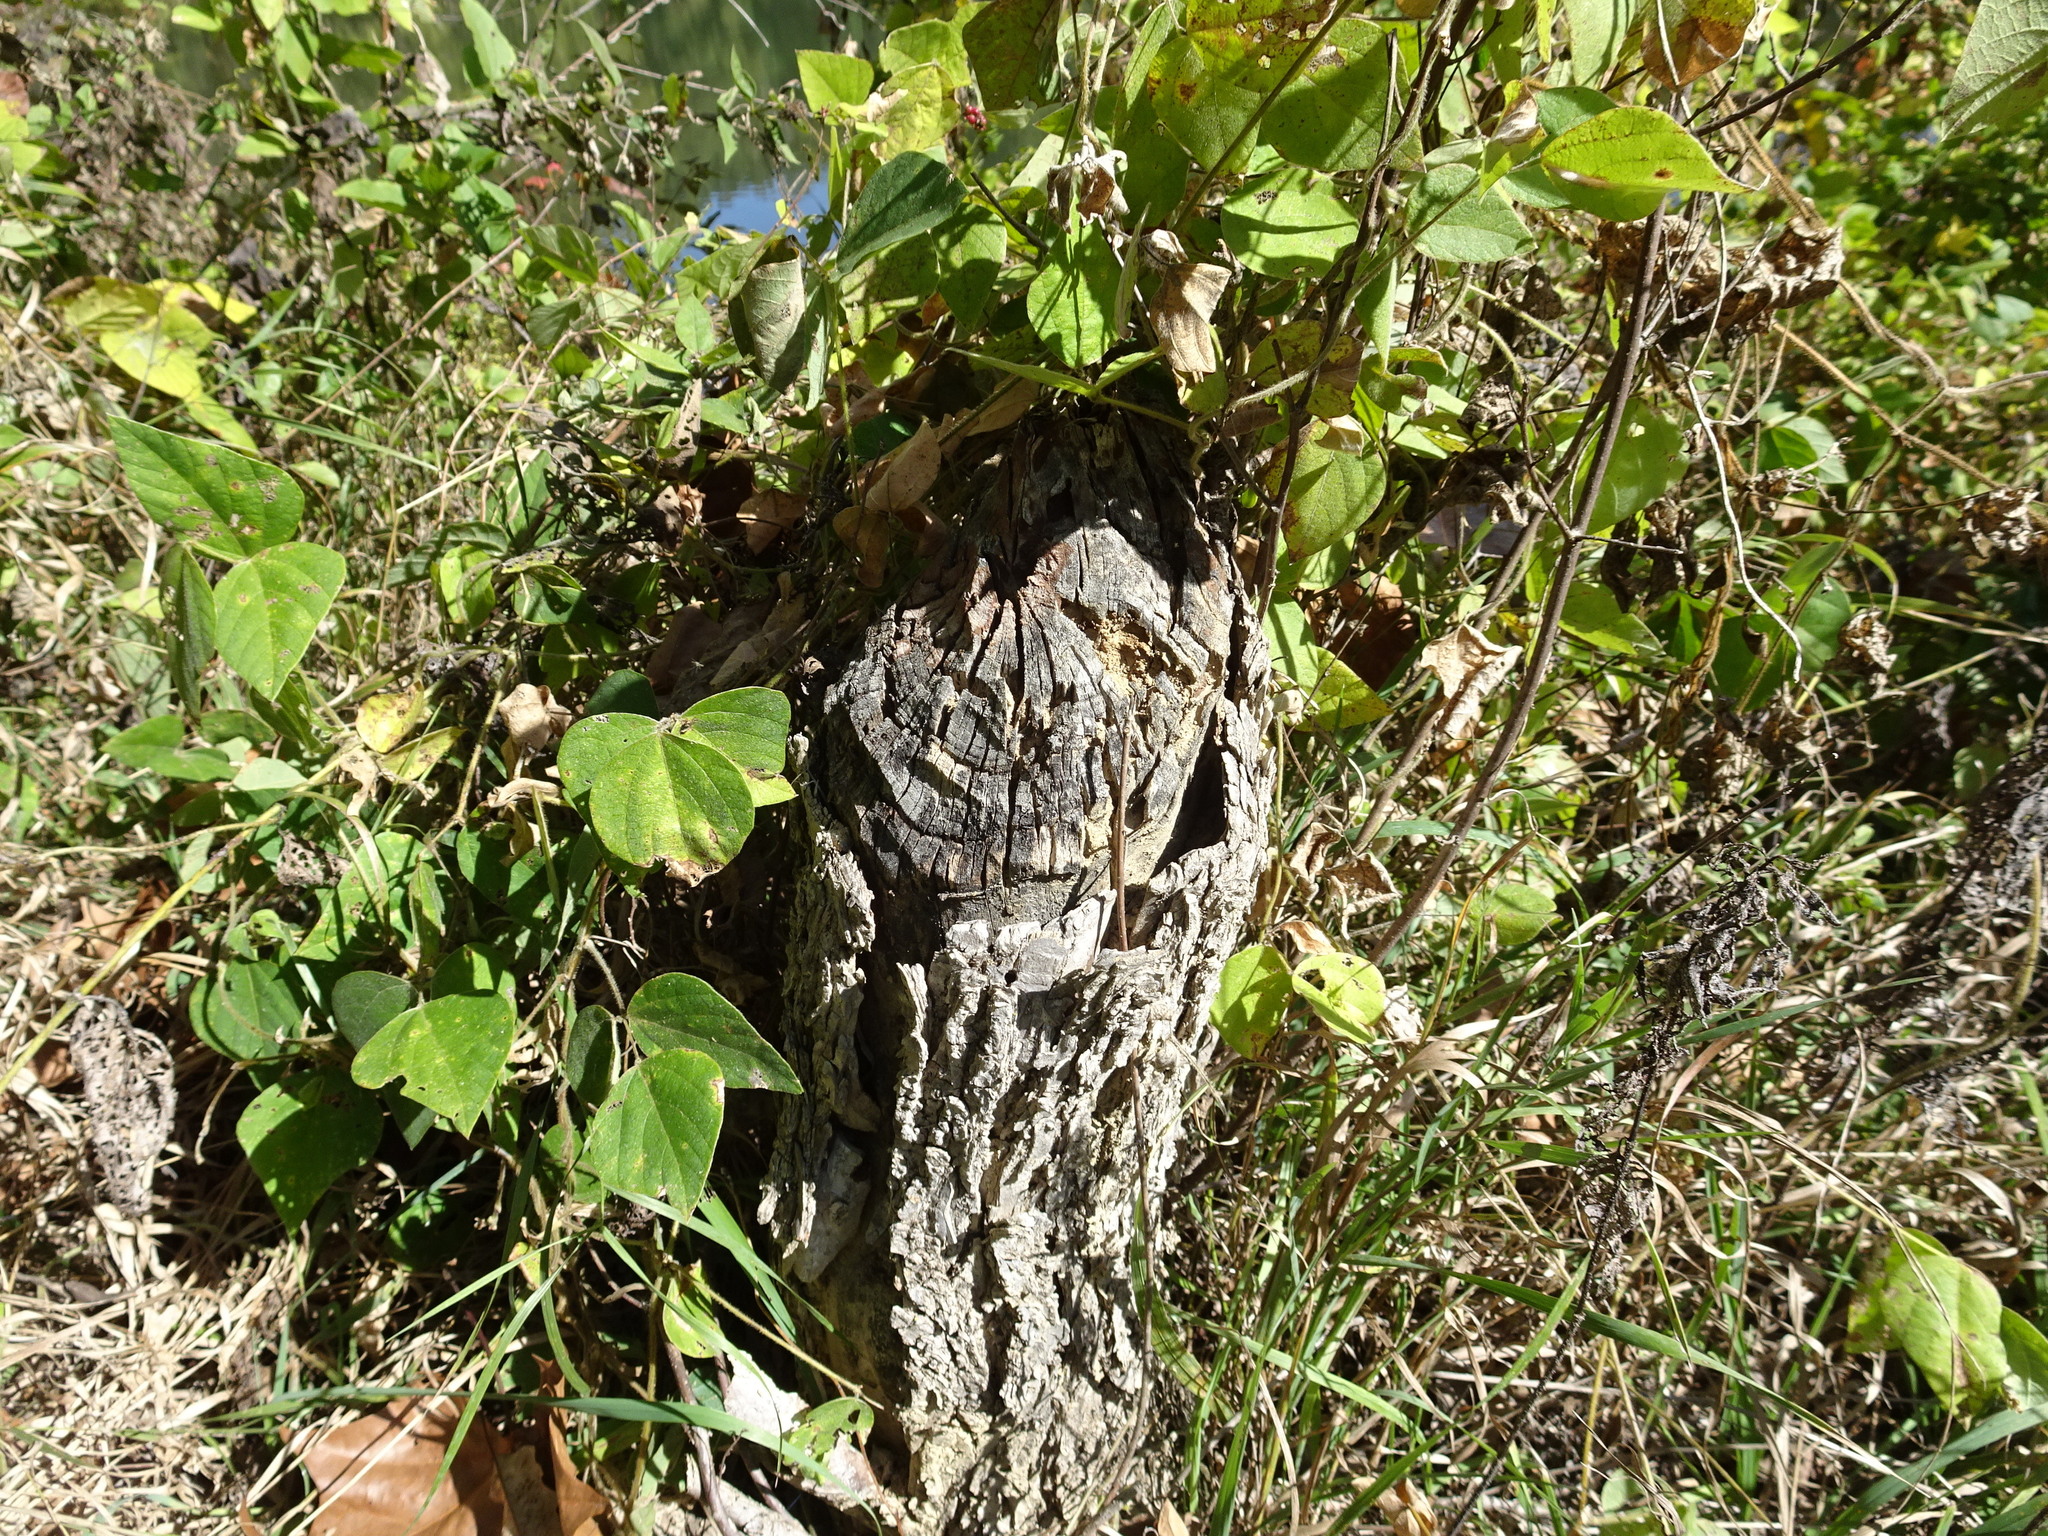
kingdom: Animalia
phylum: Chordata
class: Mammalia
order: Rodentia
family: Castoridae
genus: Castor
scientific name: Castor canadensis
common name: American beaver
